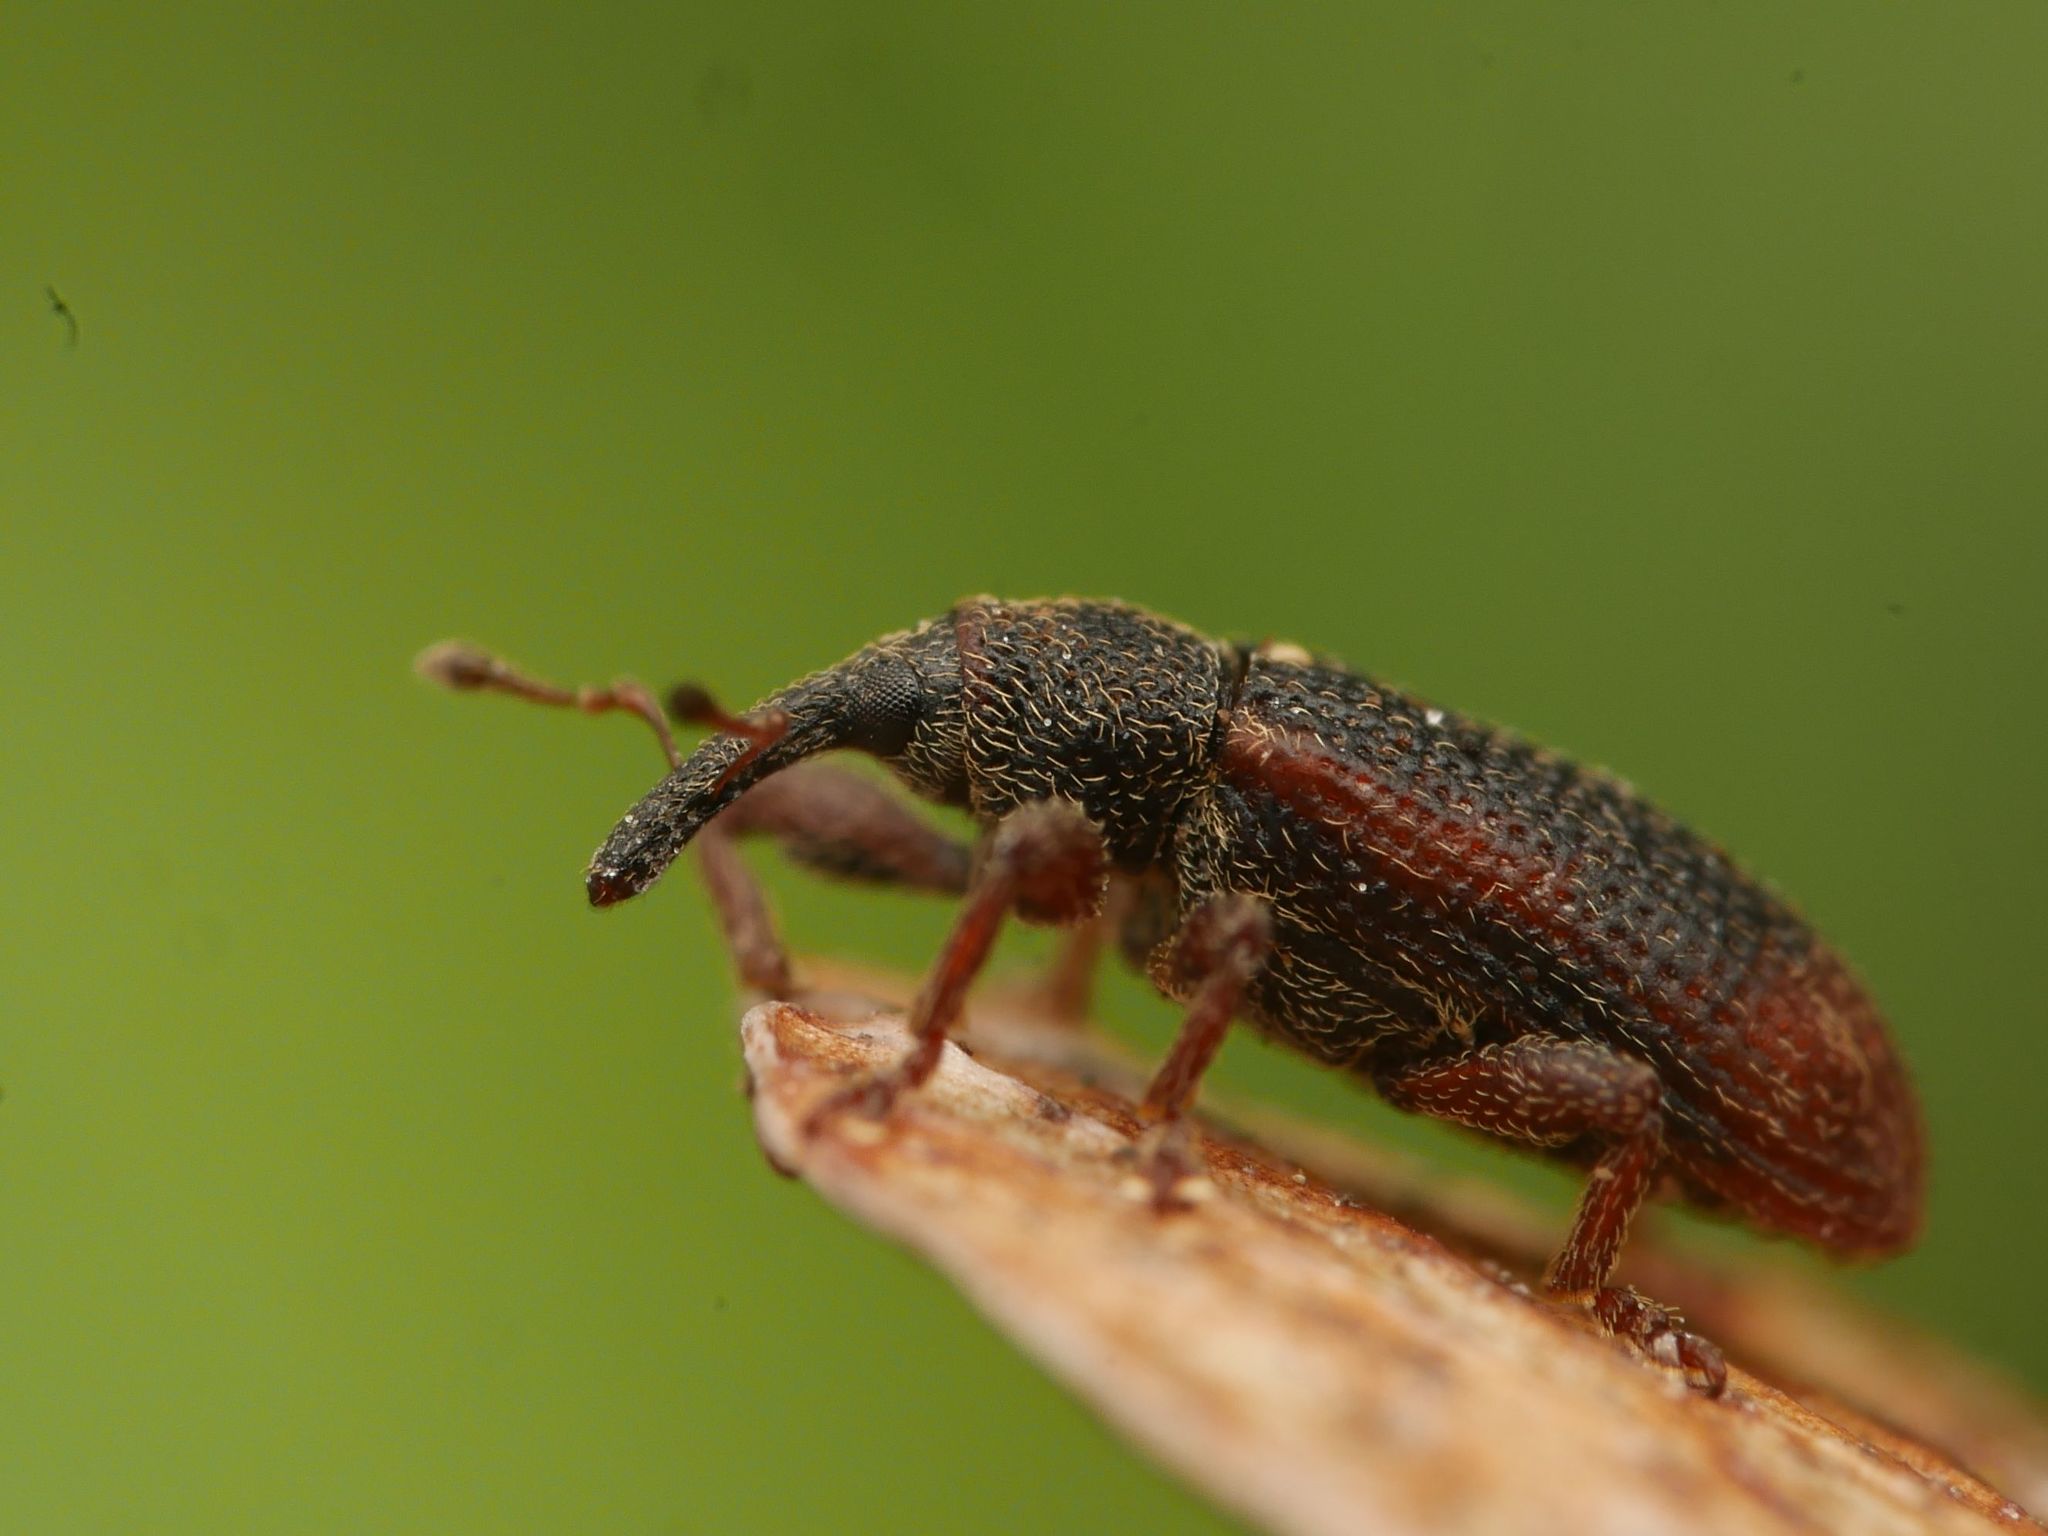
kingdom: Animalia
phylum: Arthropoda
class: Insecta
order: Coleoptera
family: Curculionidae
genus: Bradybatus
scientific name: Bradybatus kellneri
